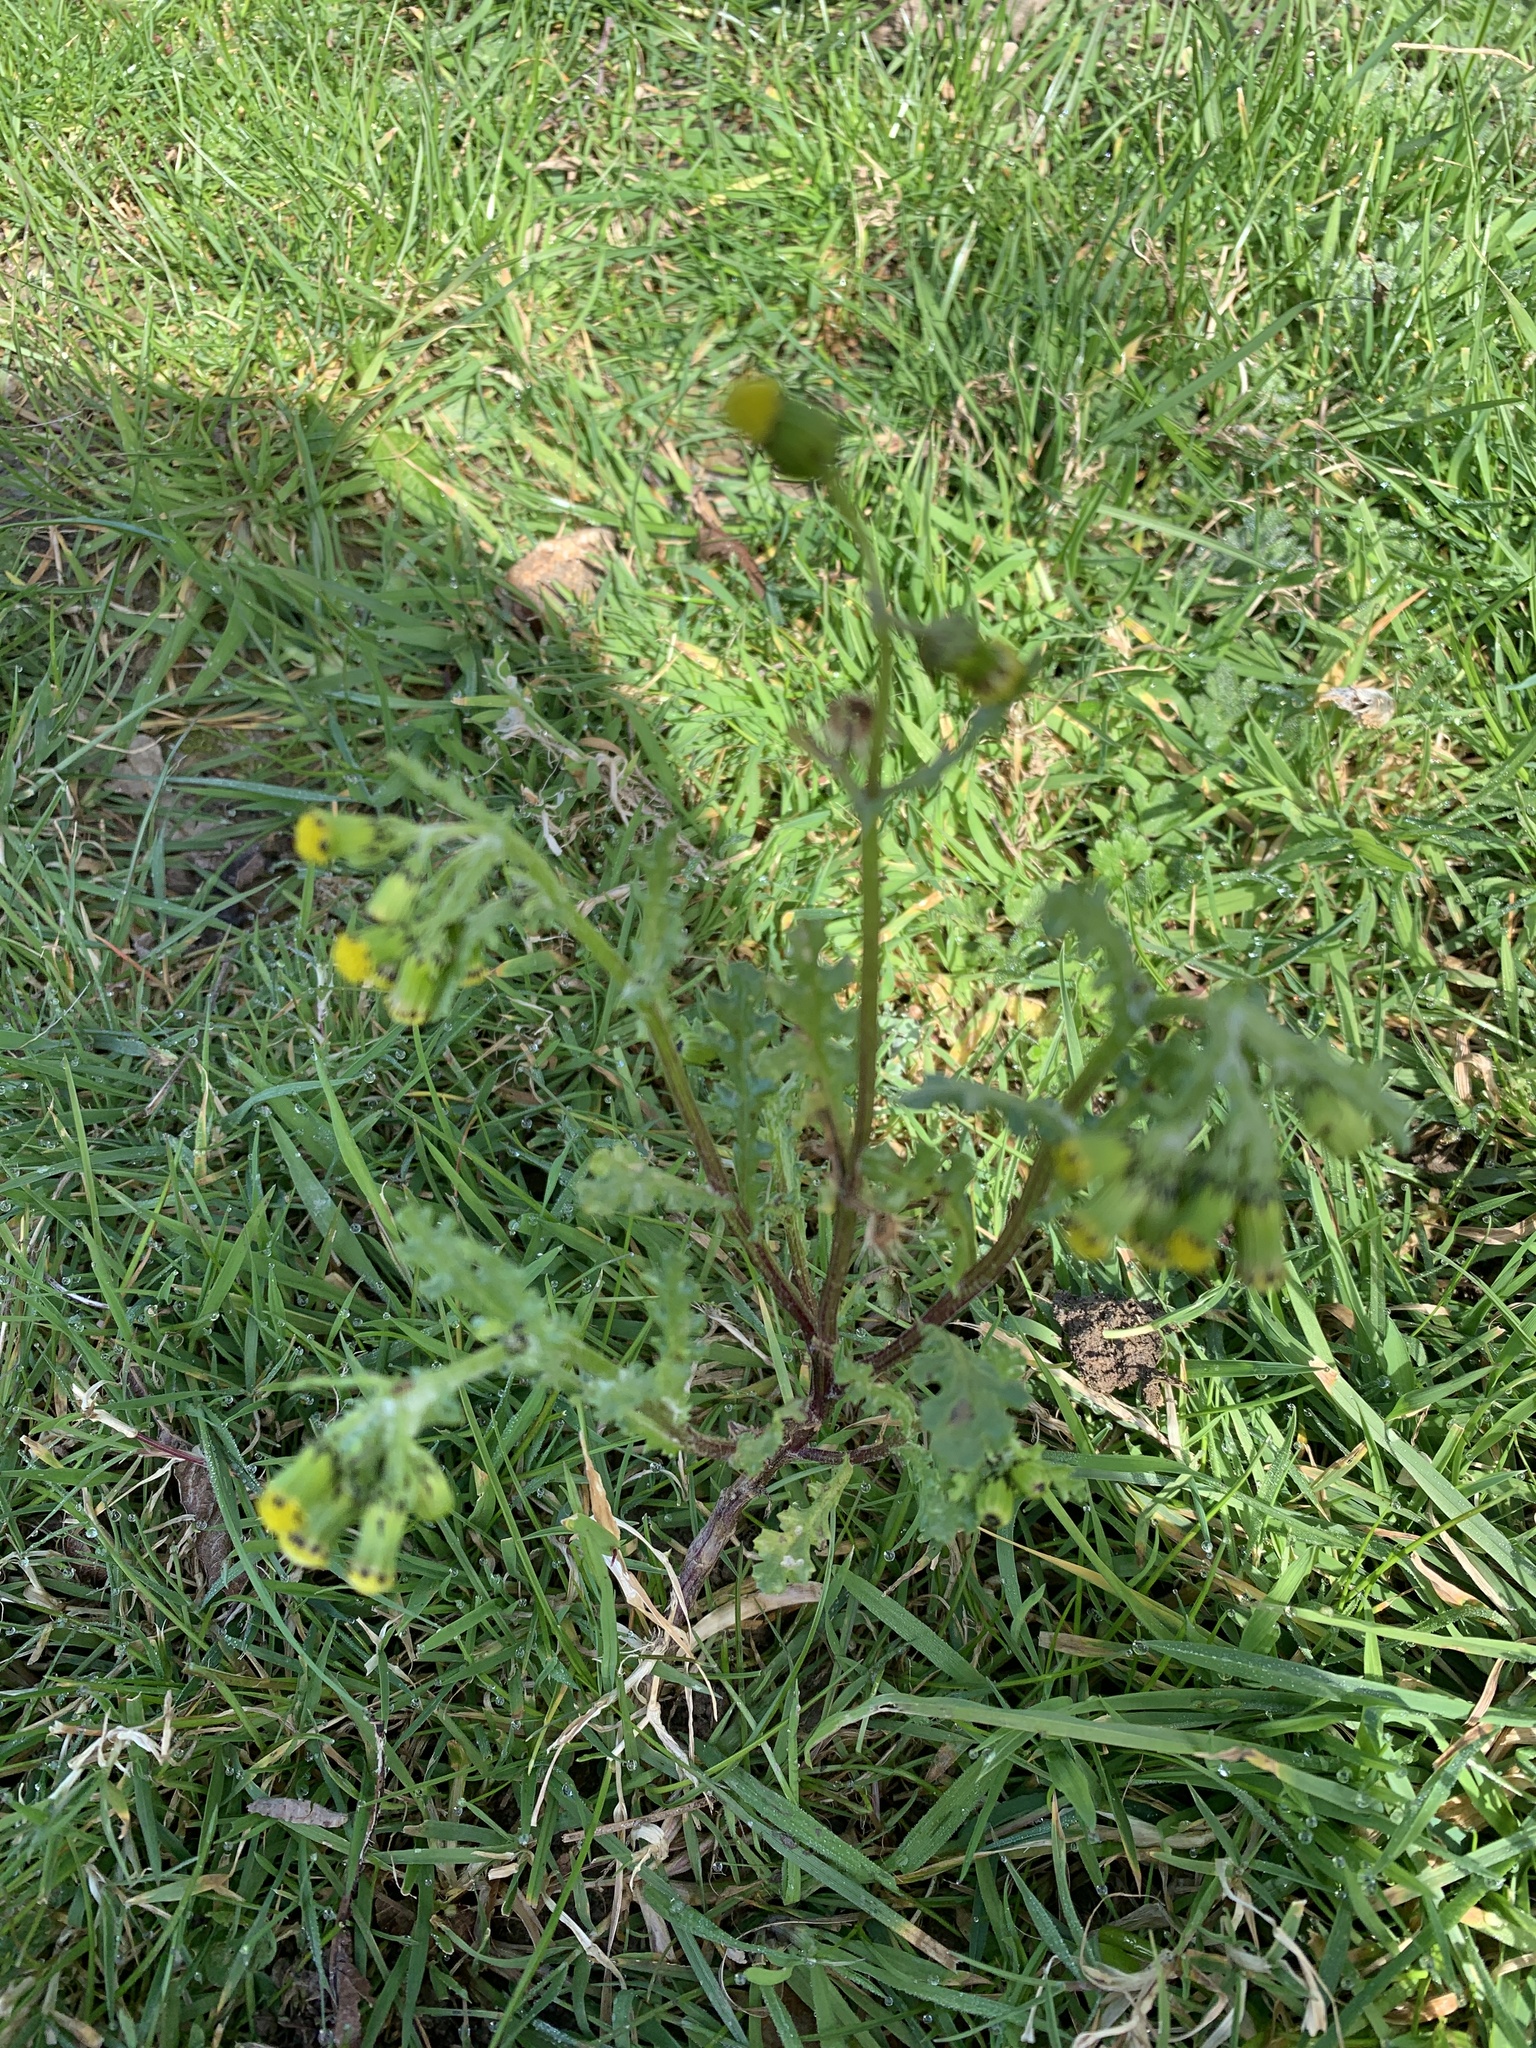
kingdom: Plantae
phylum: Tracheophyta
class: Magnoliopsida
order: Asterales
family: Asteraceae
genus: Senecio
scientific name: Senecio vulgaris
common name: Old-man-in-the-spring
